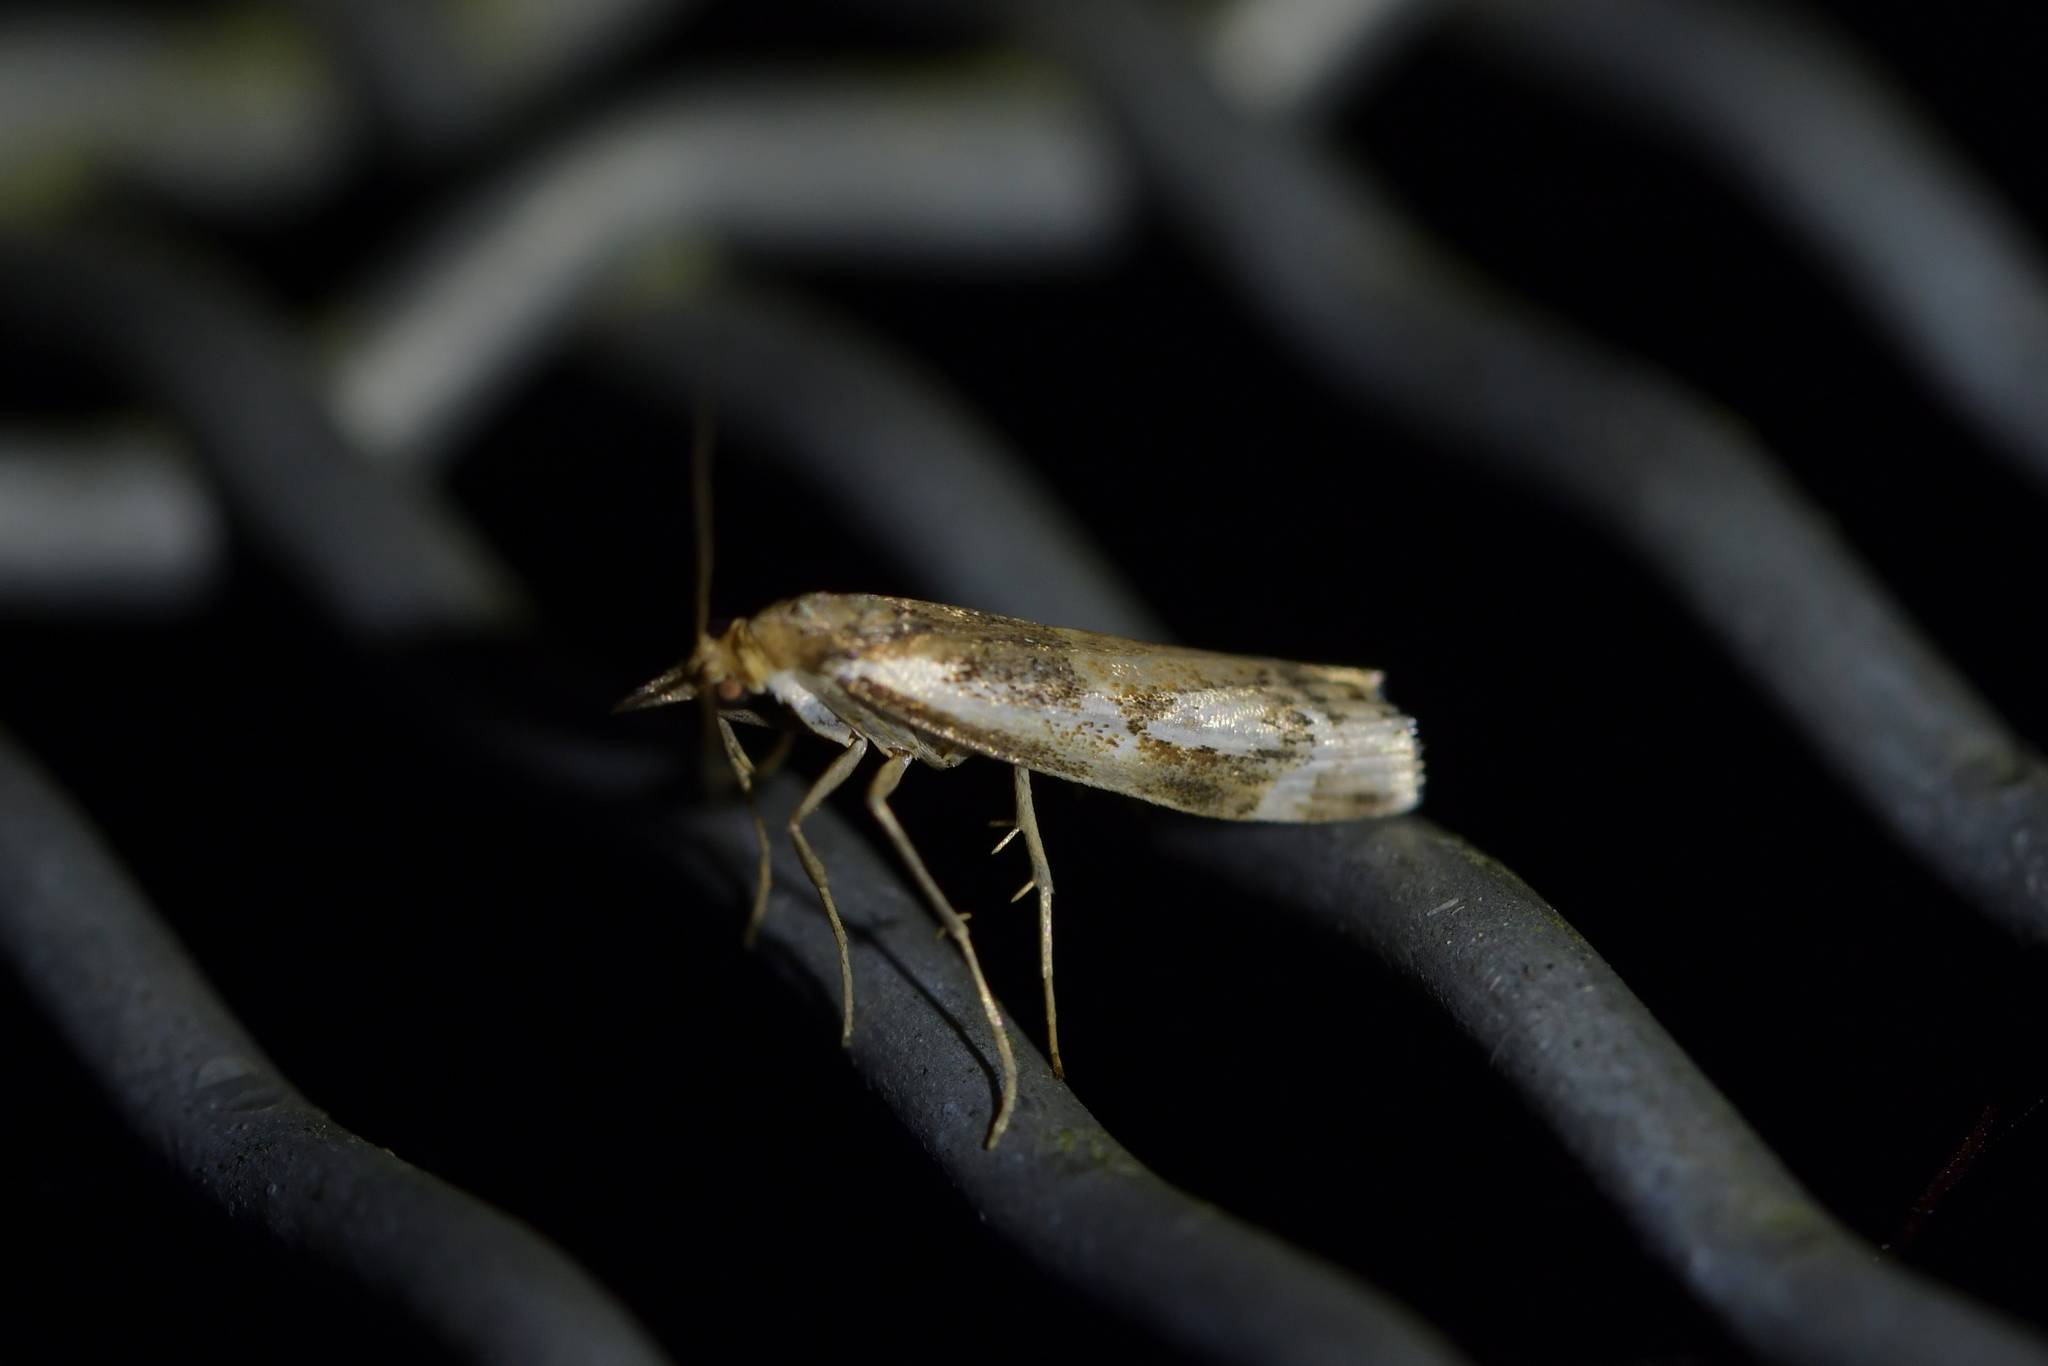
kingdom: Animalia
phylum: Arthropoda
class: Insecta
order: Lepidoptera
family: Crambidae
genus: Orocrambus
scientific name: Orocrambus vulgaris
